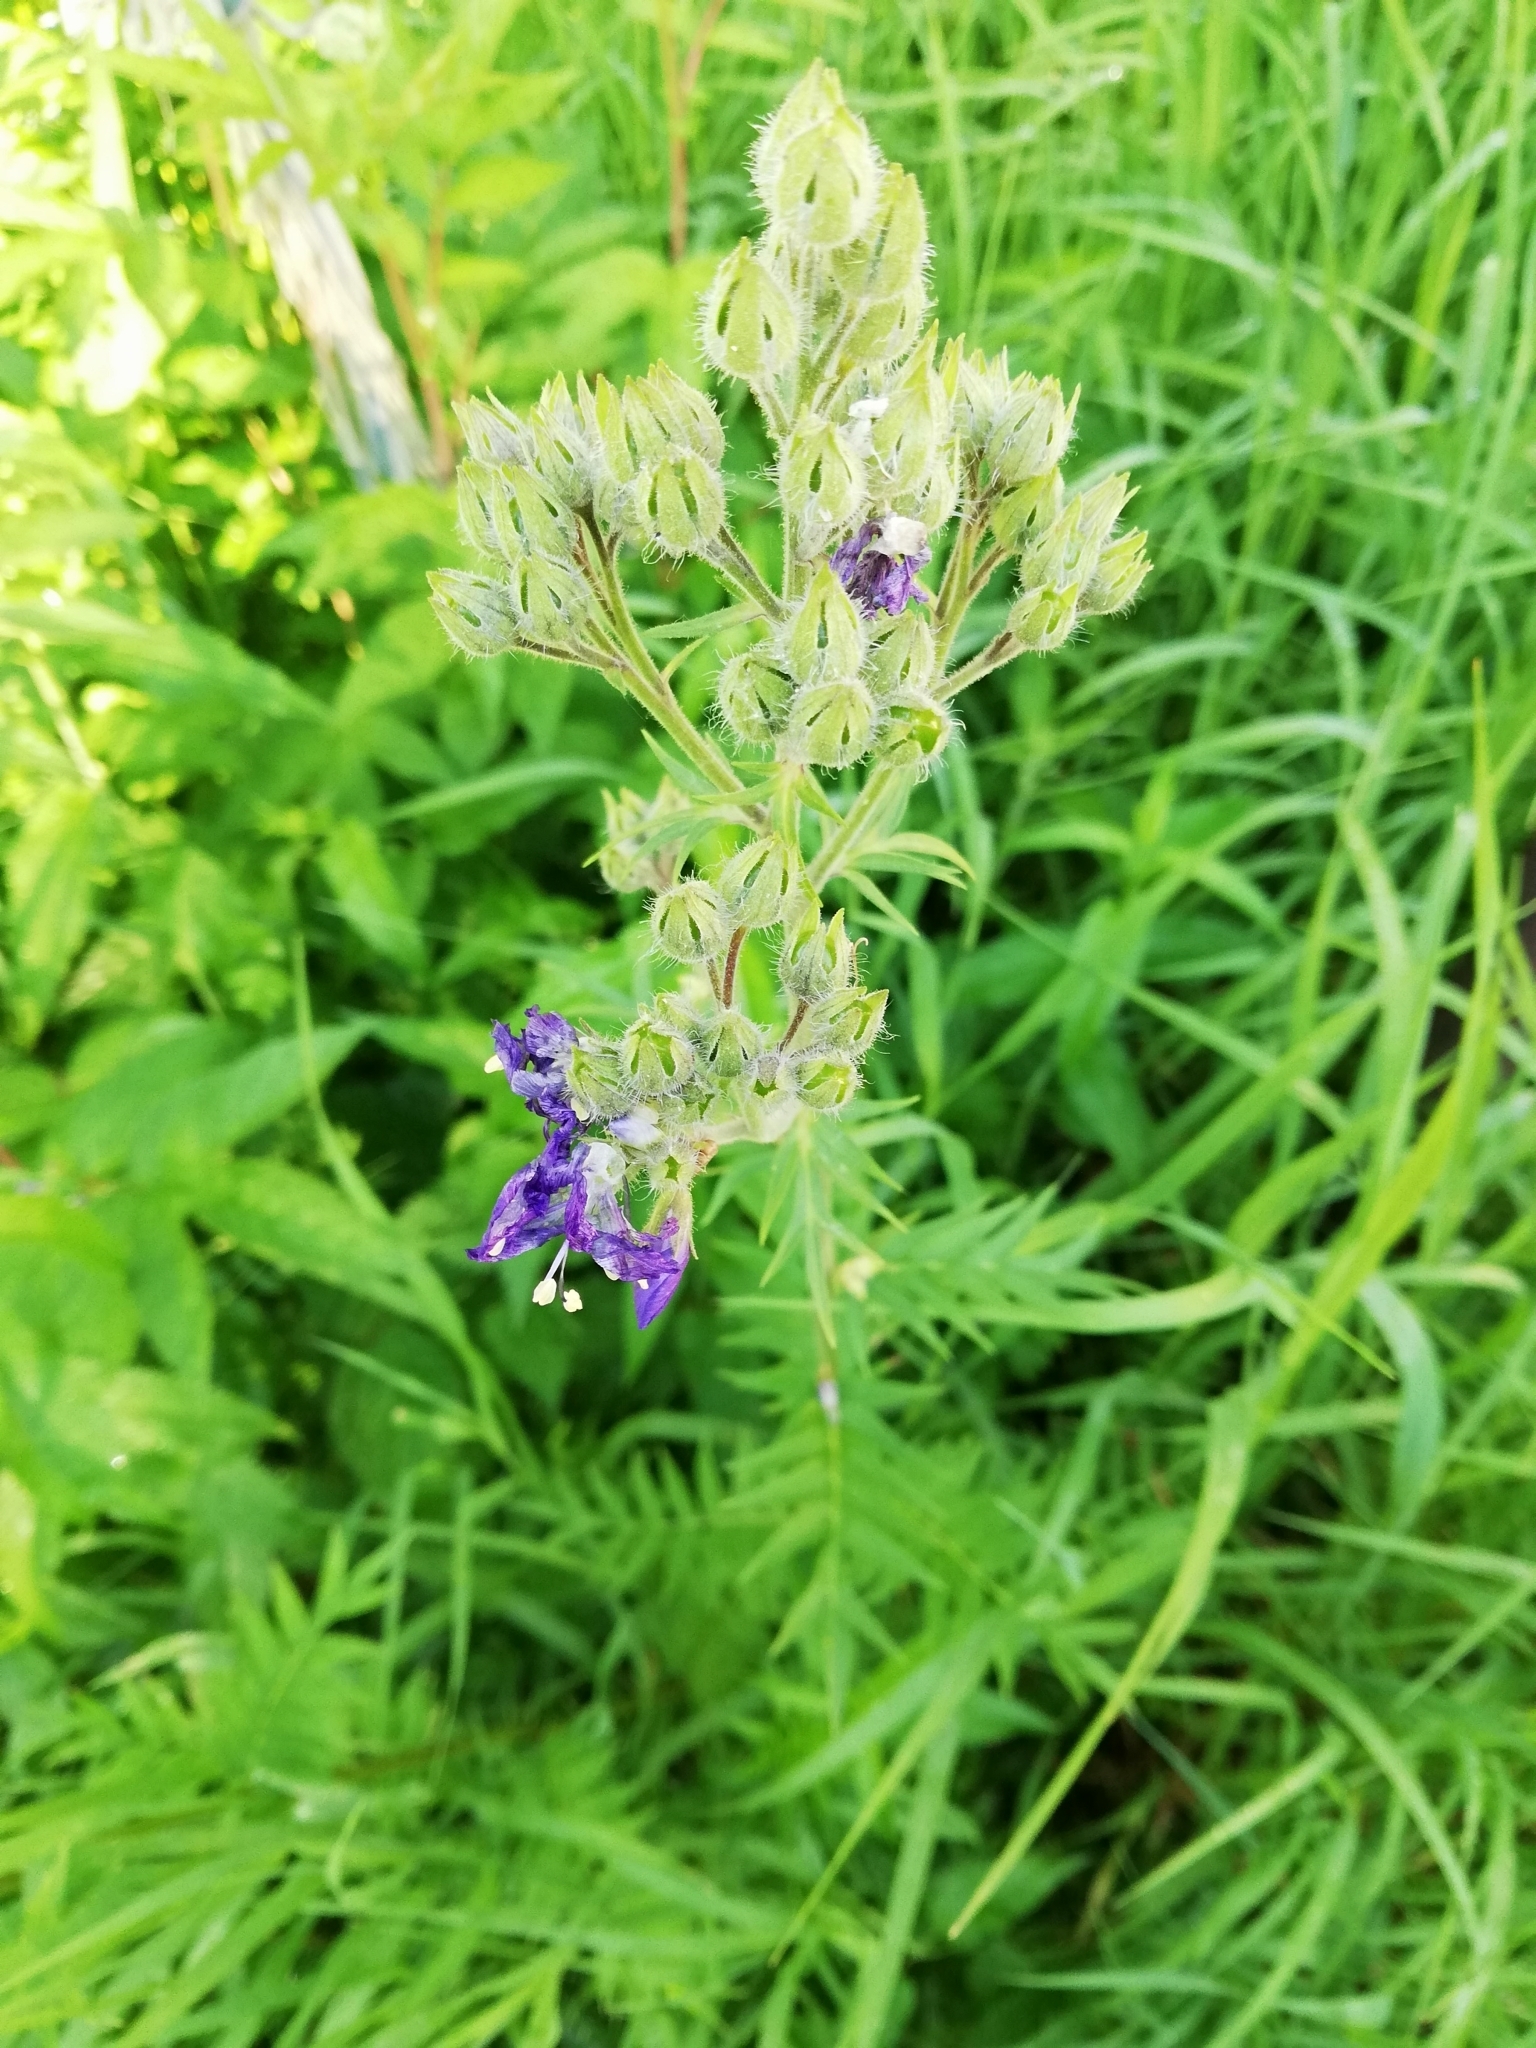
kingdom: Plantae
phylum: Tracheophyta
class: Magnoliopsida
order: Ericales
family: Polemoniaceae
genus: Polemonium
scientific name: Polemonium caeruleum
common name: Jacob's-ladder
